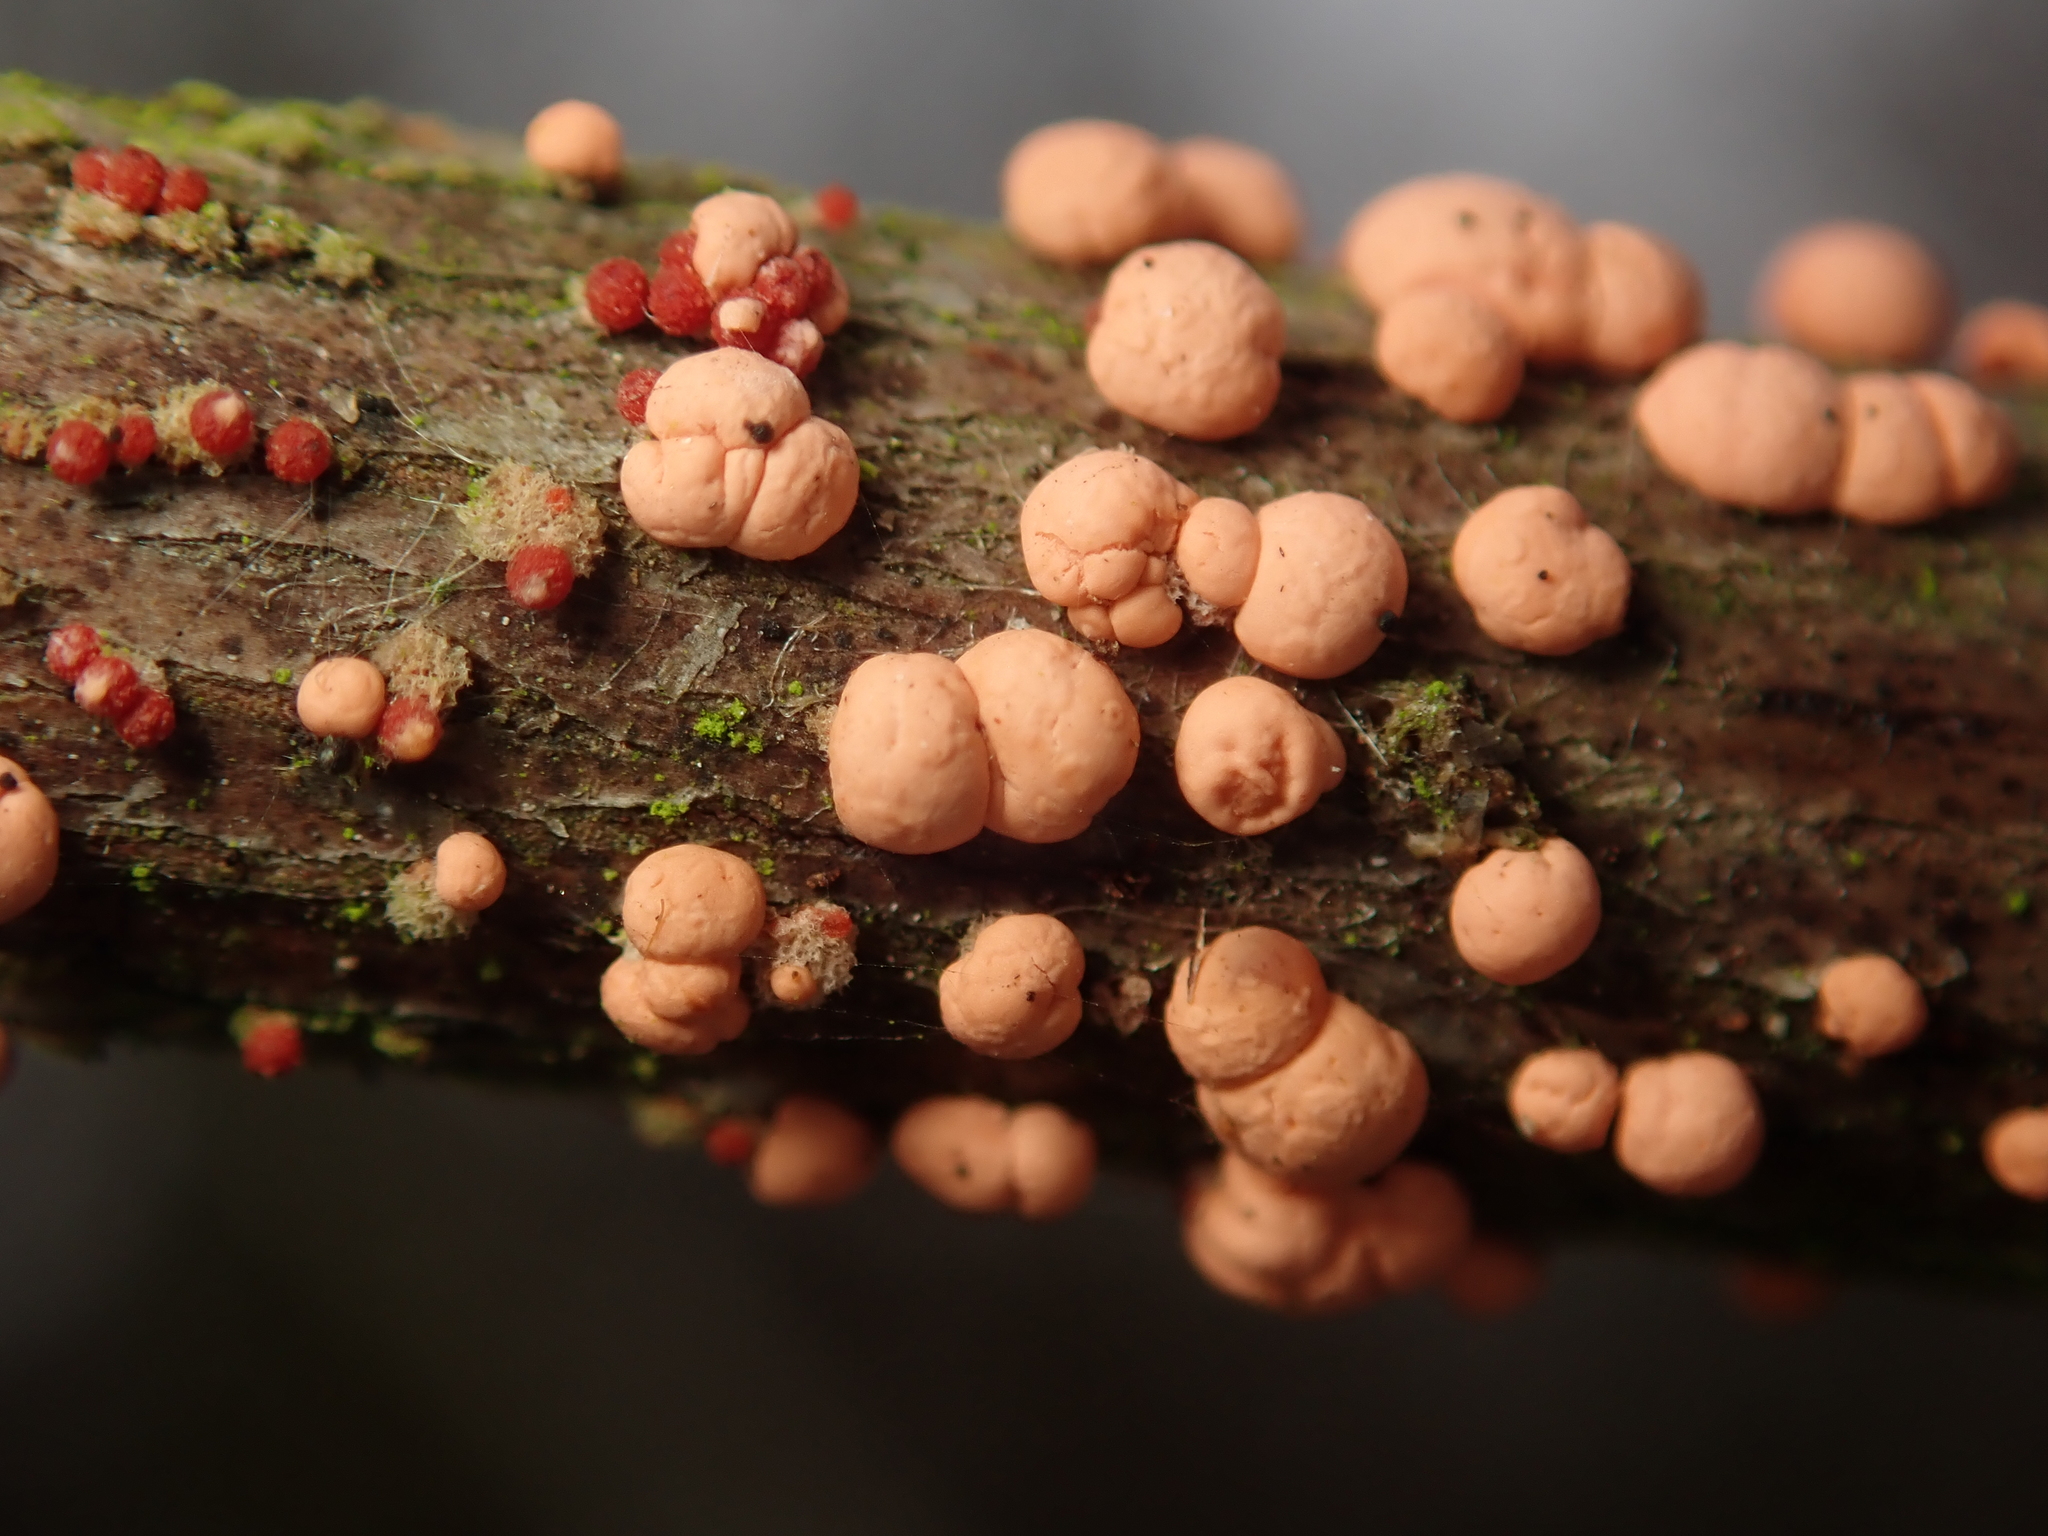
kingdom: Fungi
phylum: Ascomycota
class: Sordariomycetes
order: Hypocreales
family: Nectriaceae
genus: Nectria
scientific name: Nectria cinnabarina
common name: Coral spot
